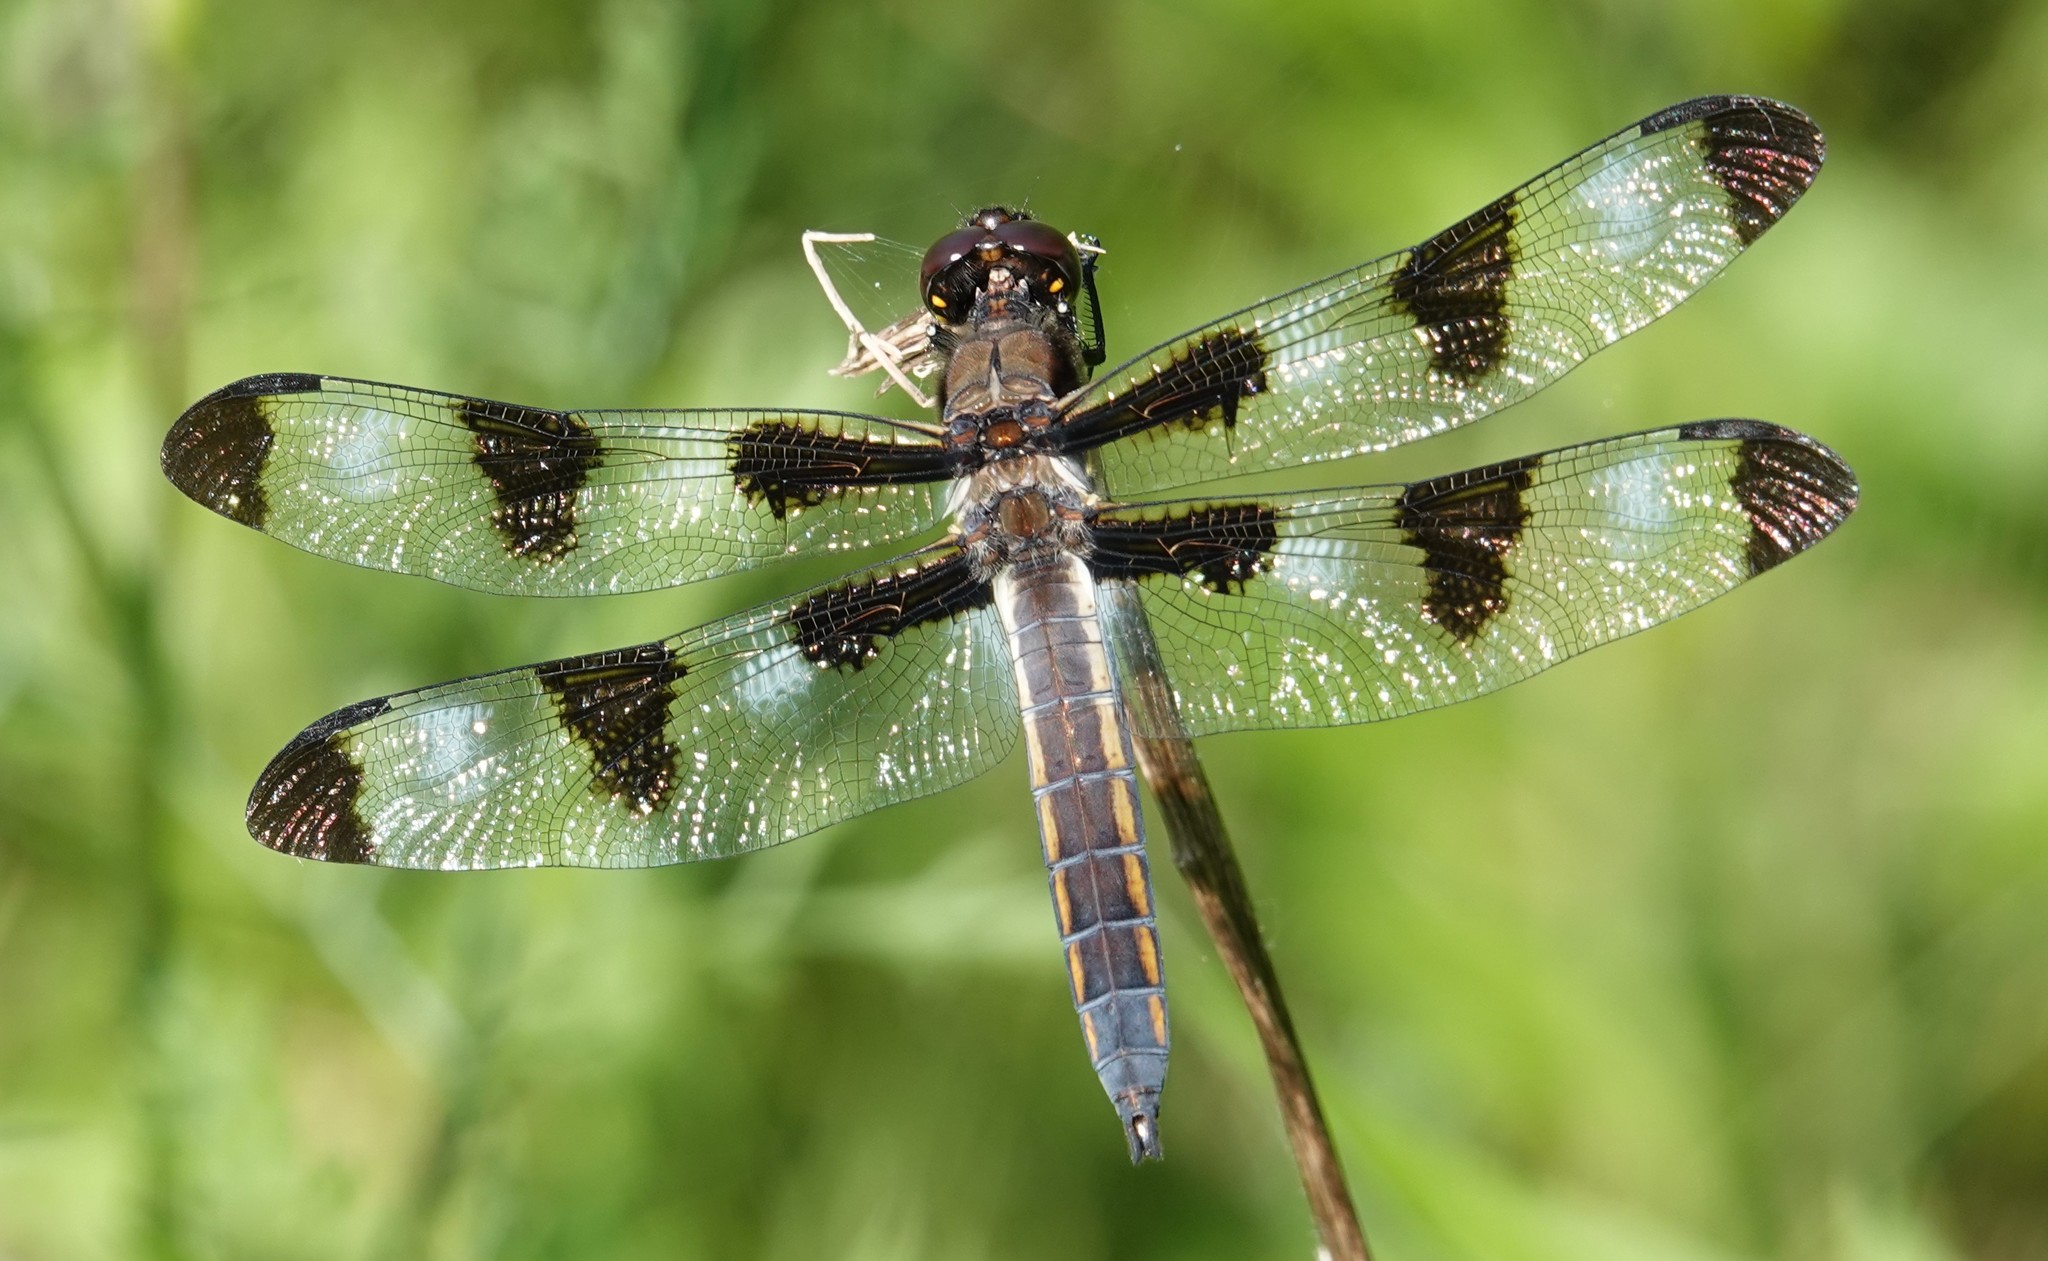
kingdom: Animalia
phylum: Arthropoda
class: Insecta
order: Odonata
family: Libellulidae
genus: Libellula
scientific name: Libellula pulchella
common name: Twelve-spotted skimmer
